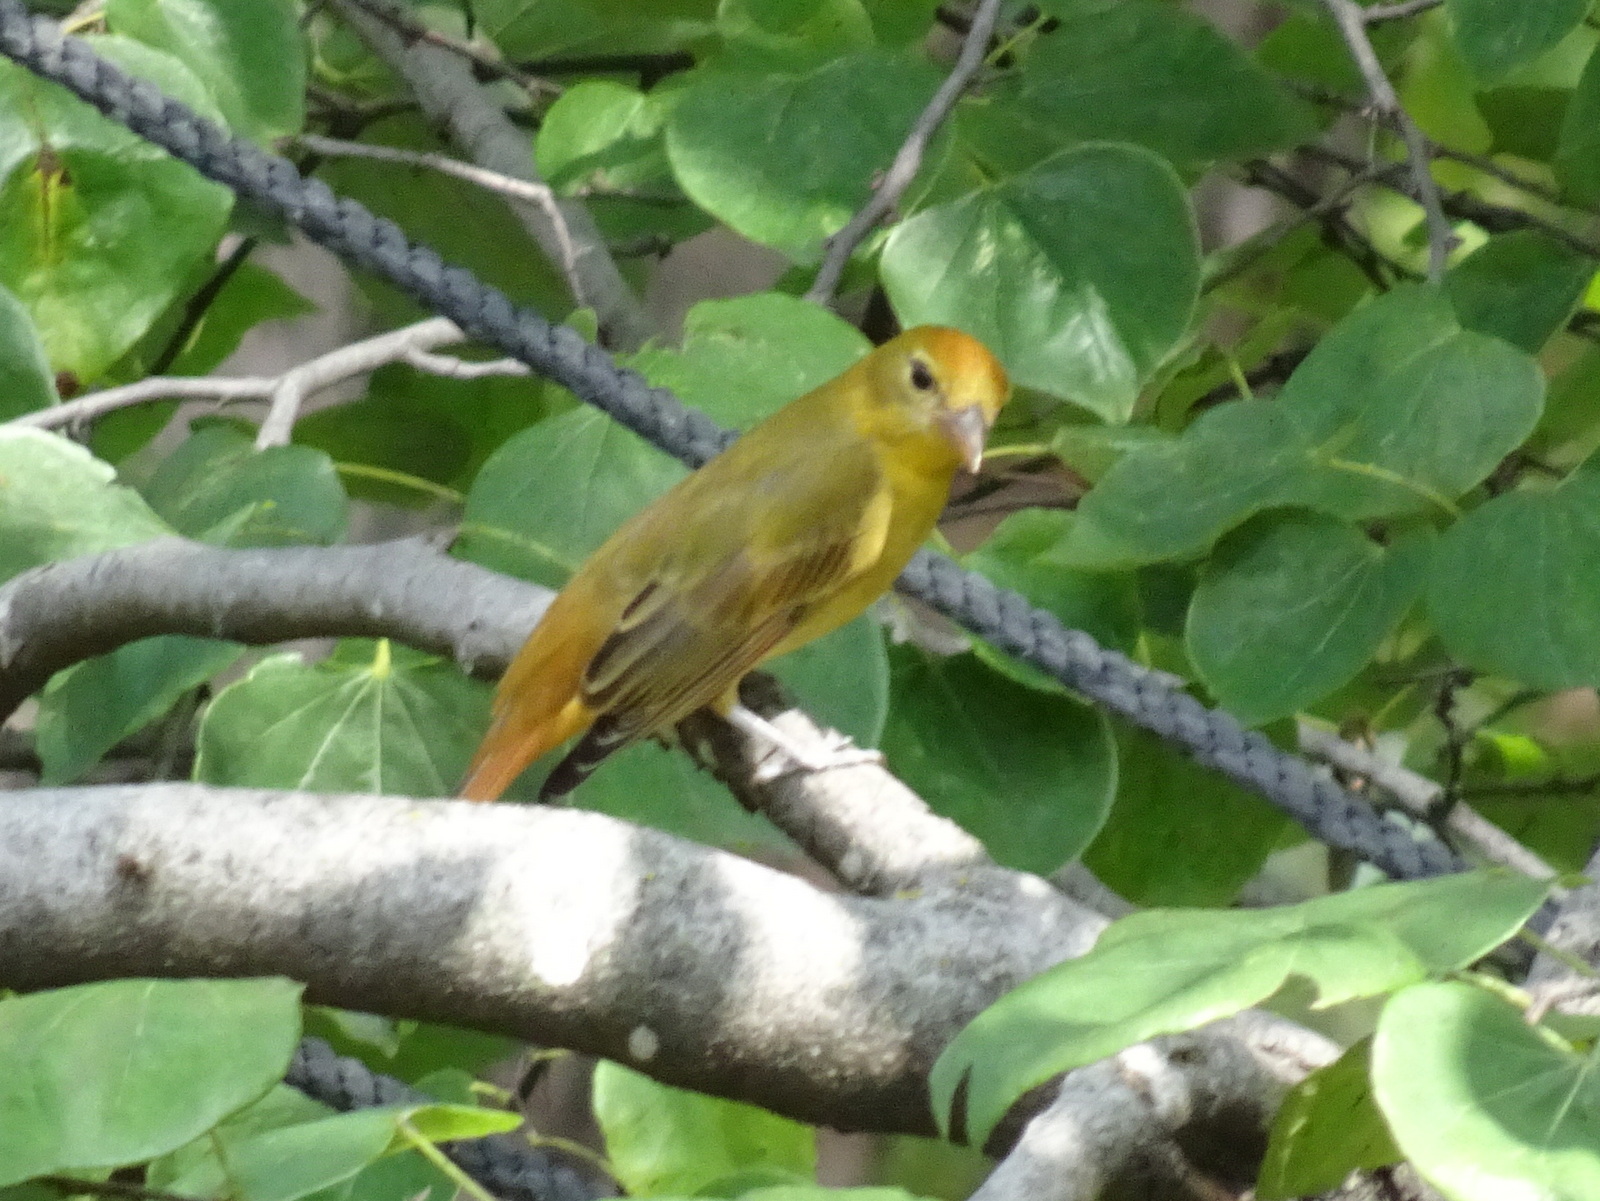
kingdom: Animalia
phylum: Chordata
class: Aves
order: Passeriformes
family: Cardinalidae
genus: Piranga
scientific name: Piranga rubra
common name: Summer tanager
